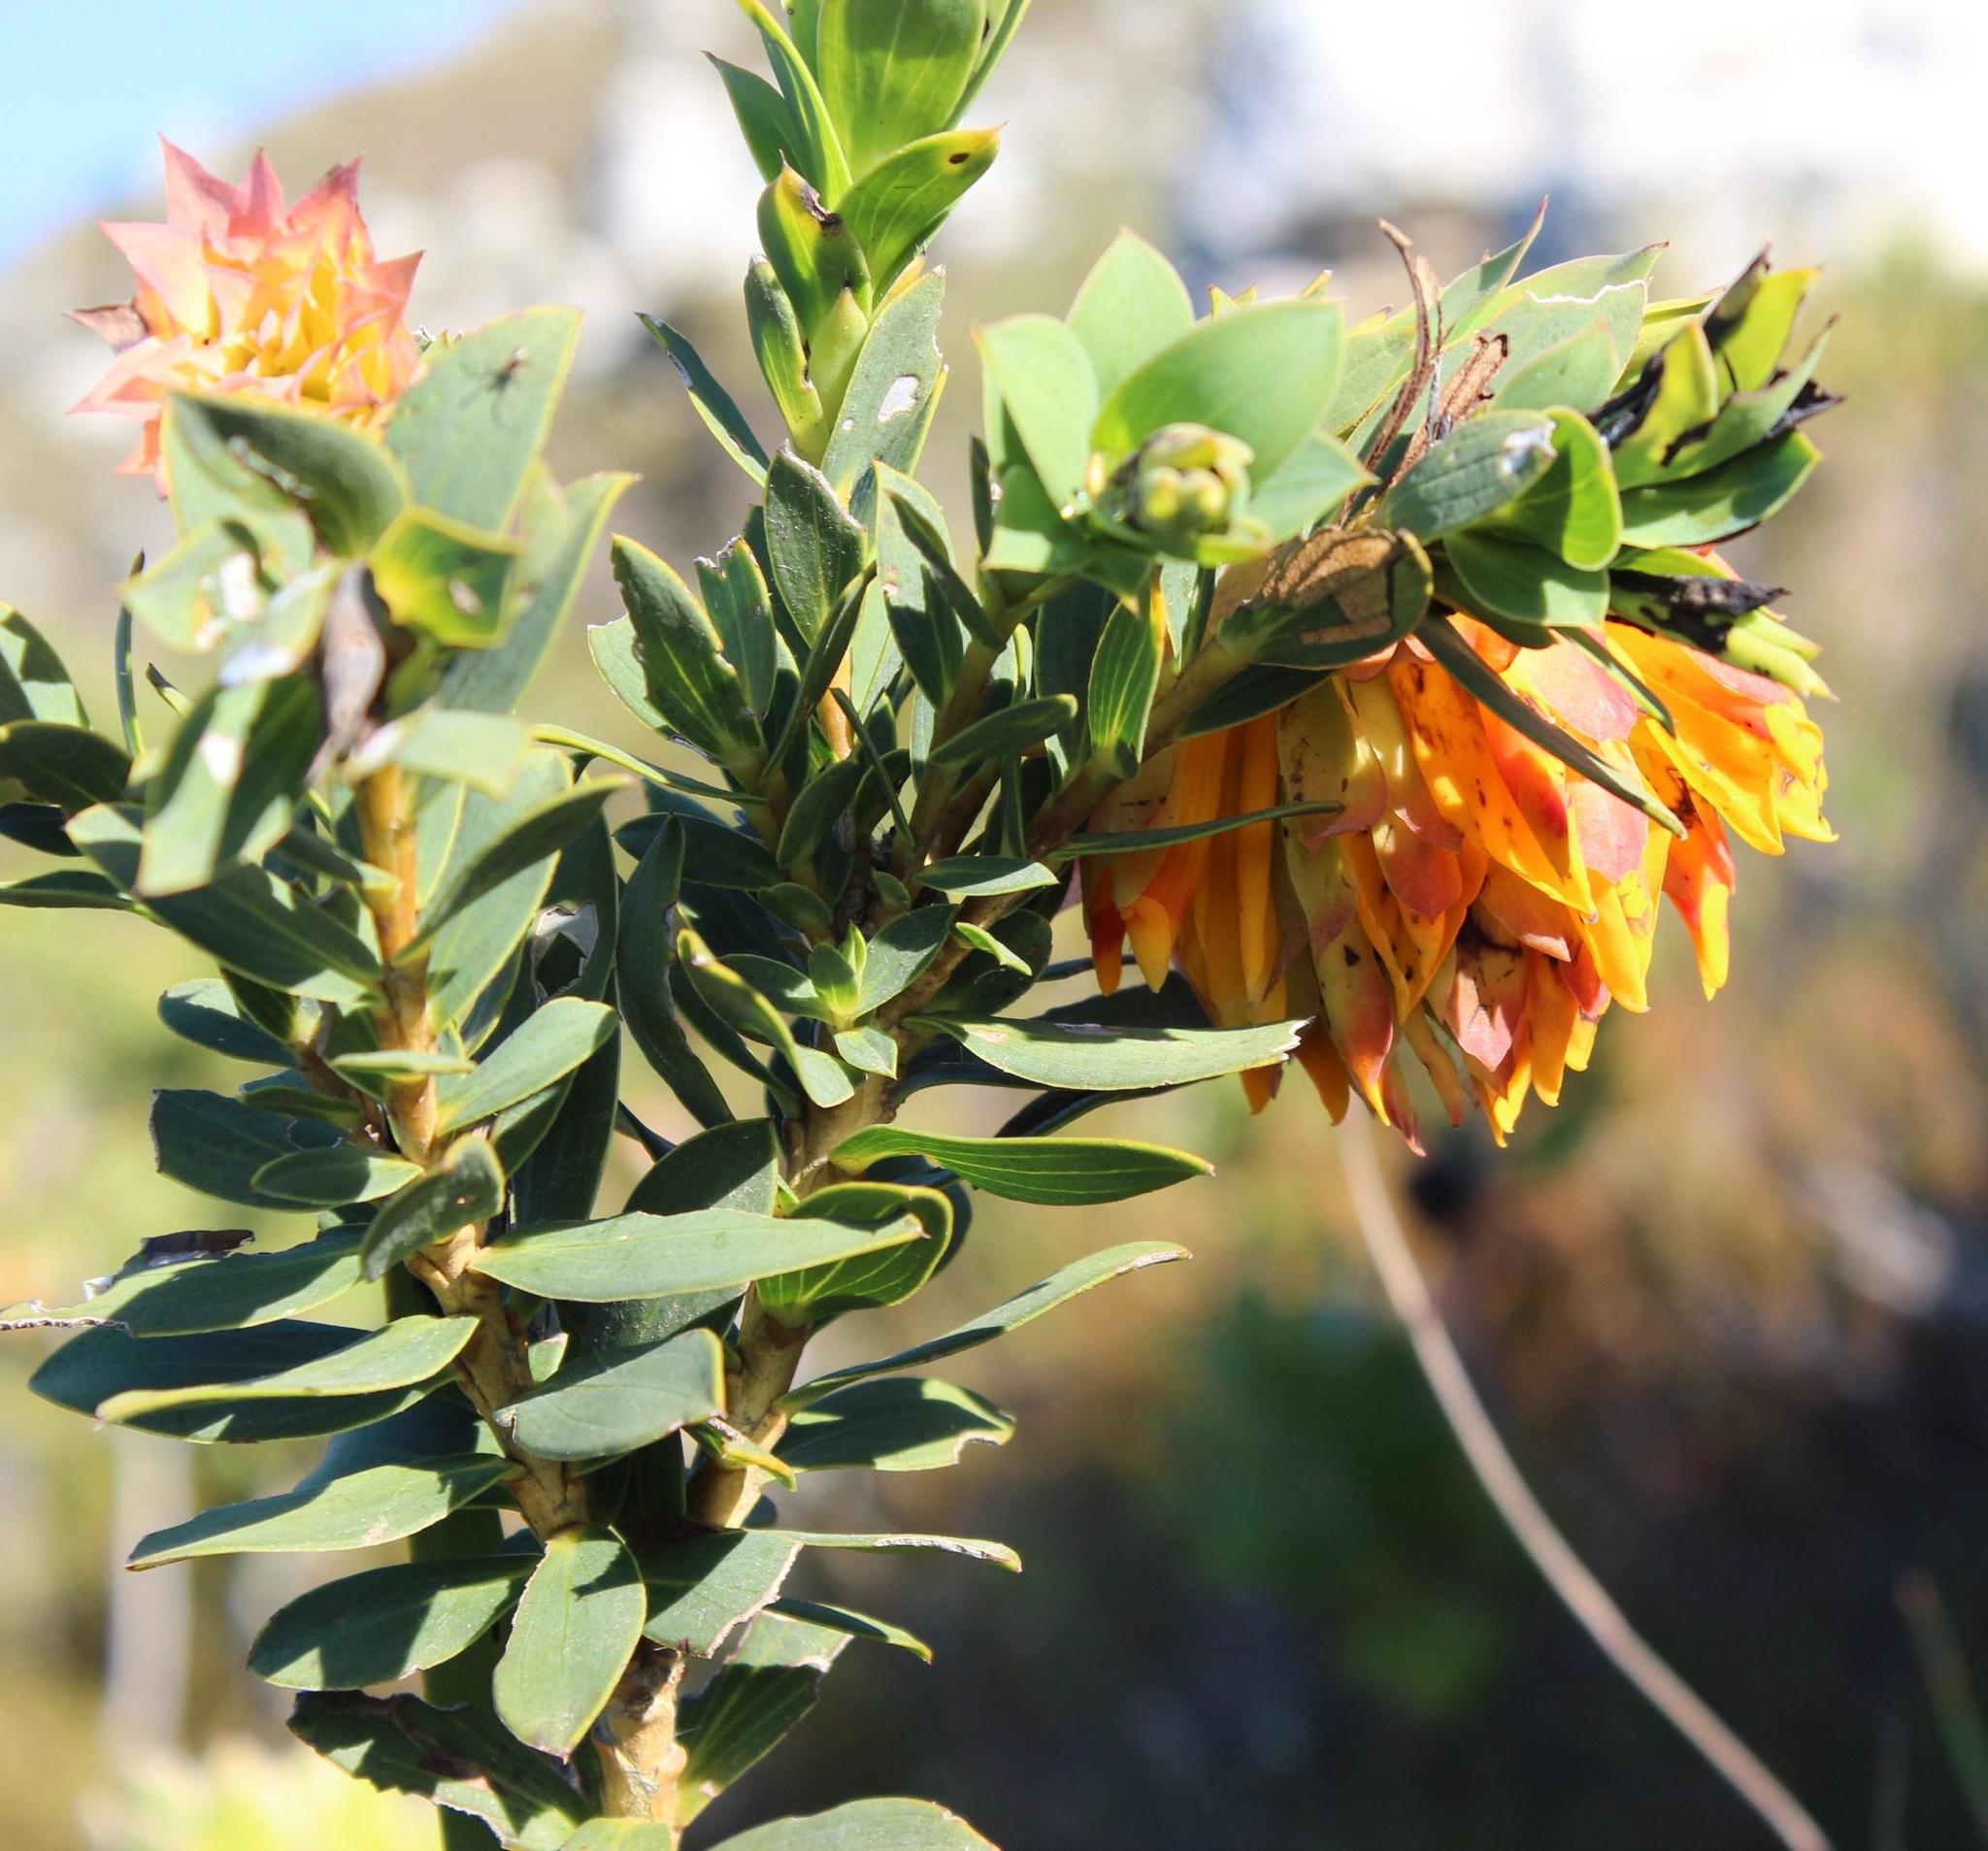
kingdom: Plantae
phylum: Tracheophyta
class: Magnoliopsida
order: Fabales
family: Fabaceae
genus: Liparia
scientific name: Liparia splendens
